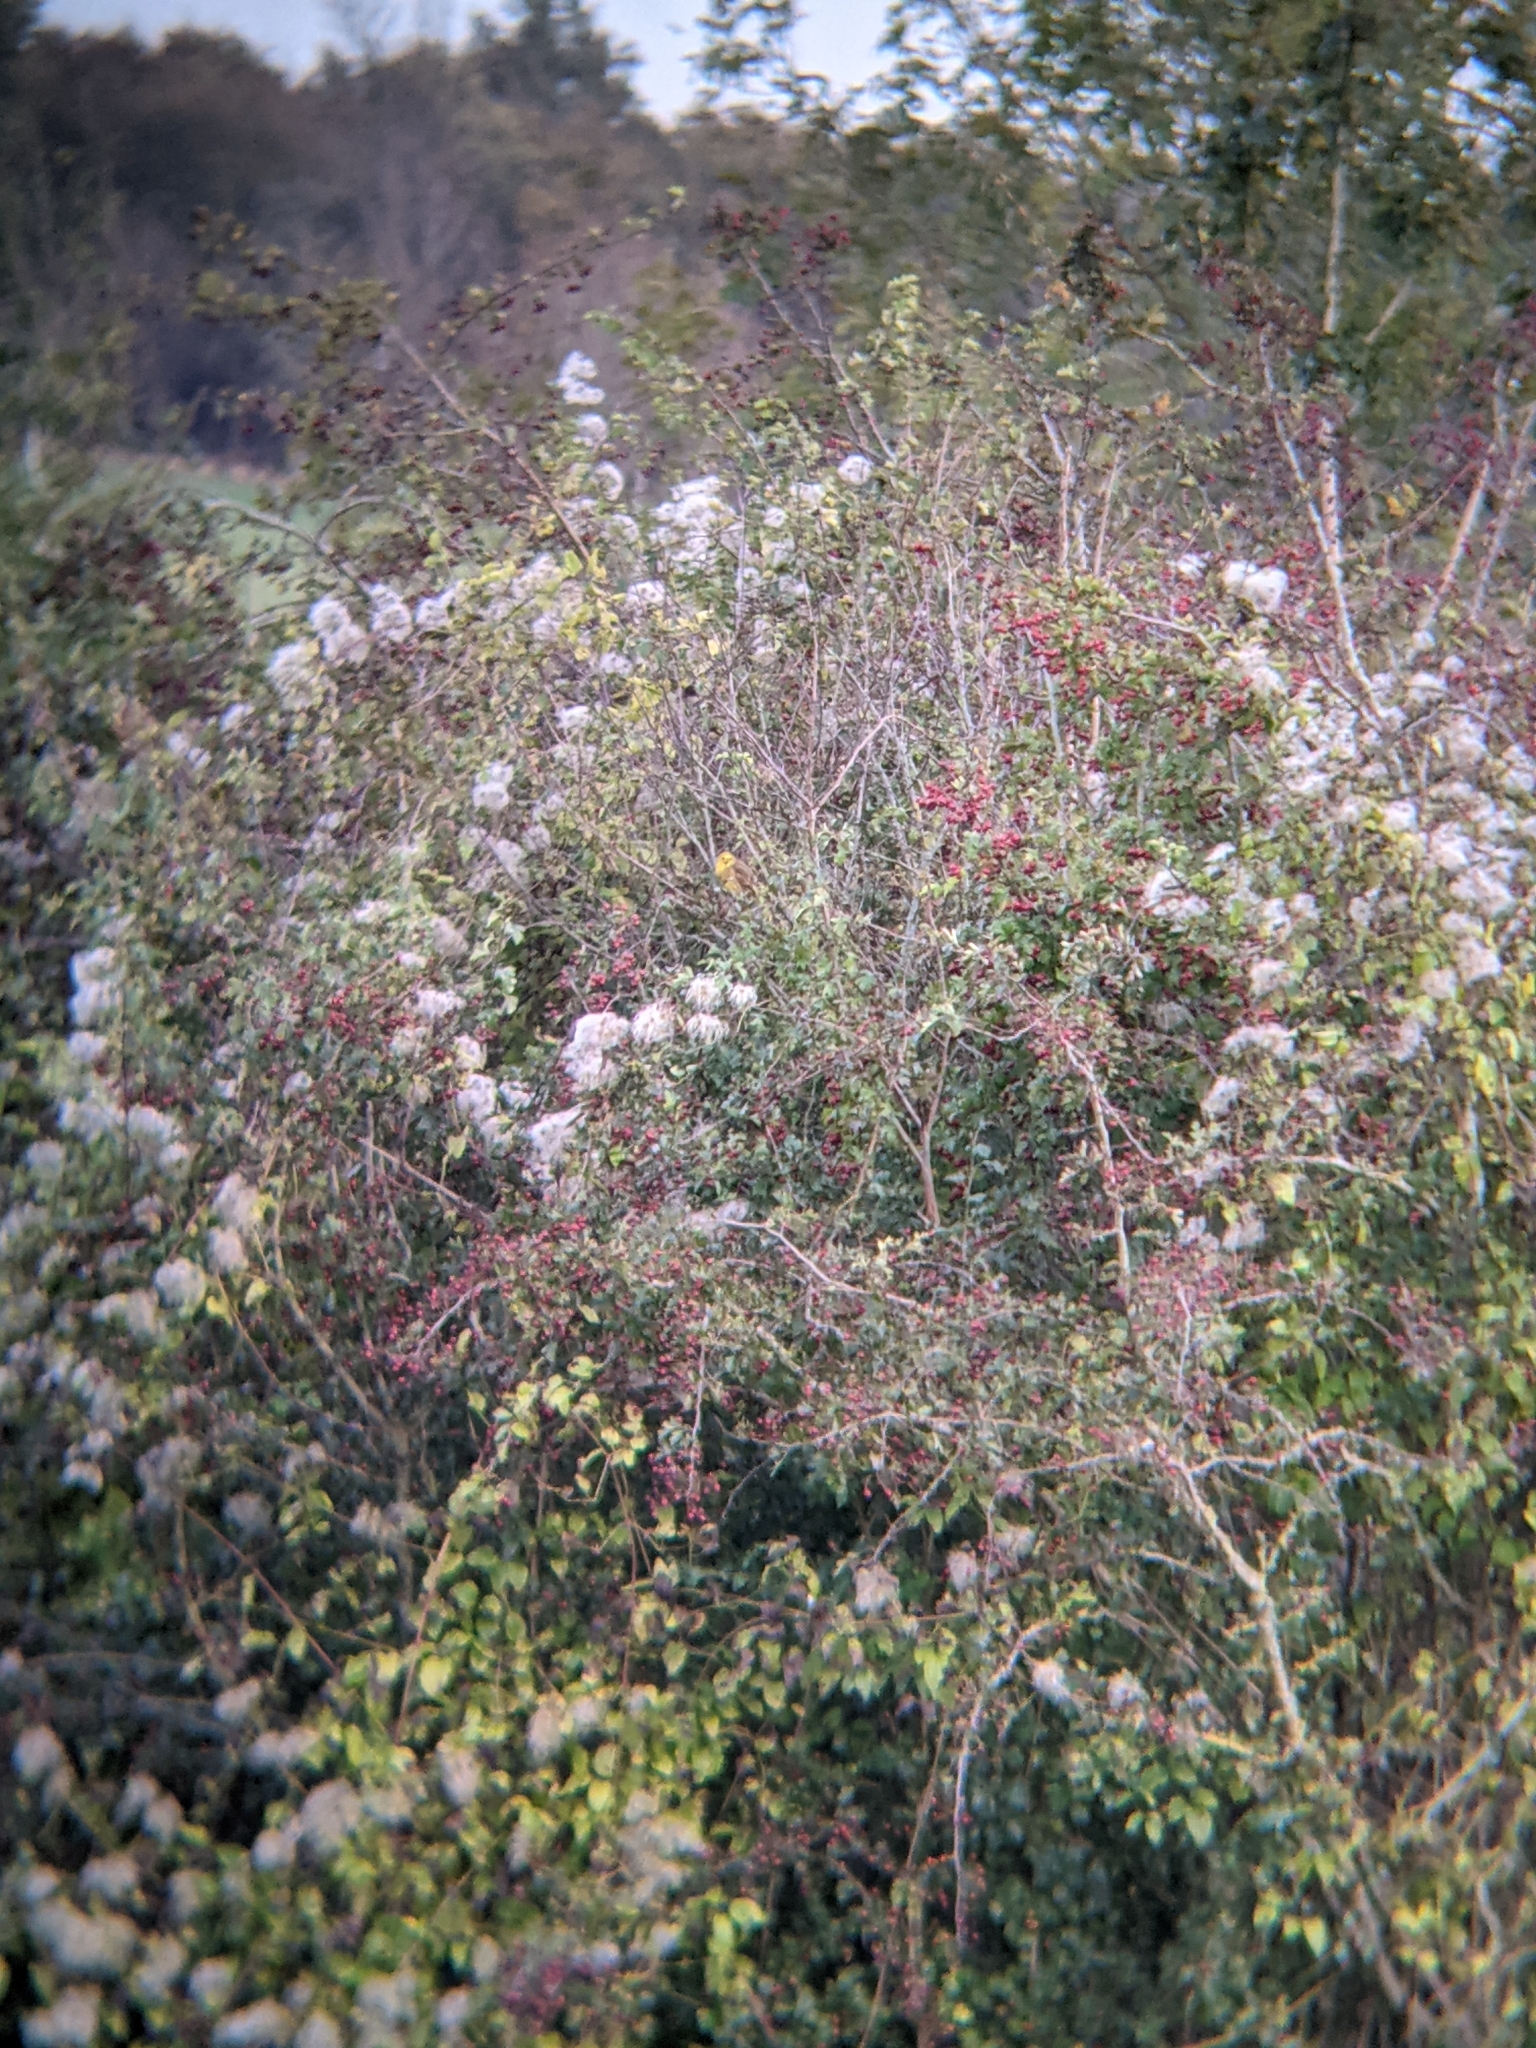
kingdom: Animalia
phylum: Chordata
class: Aves
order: Passeriformes
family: Emberizidae
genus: Emberiza
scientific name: Emberiza citrinella
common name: Yellowhammer
